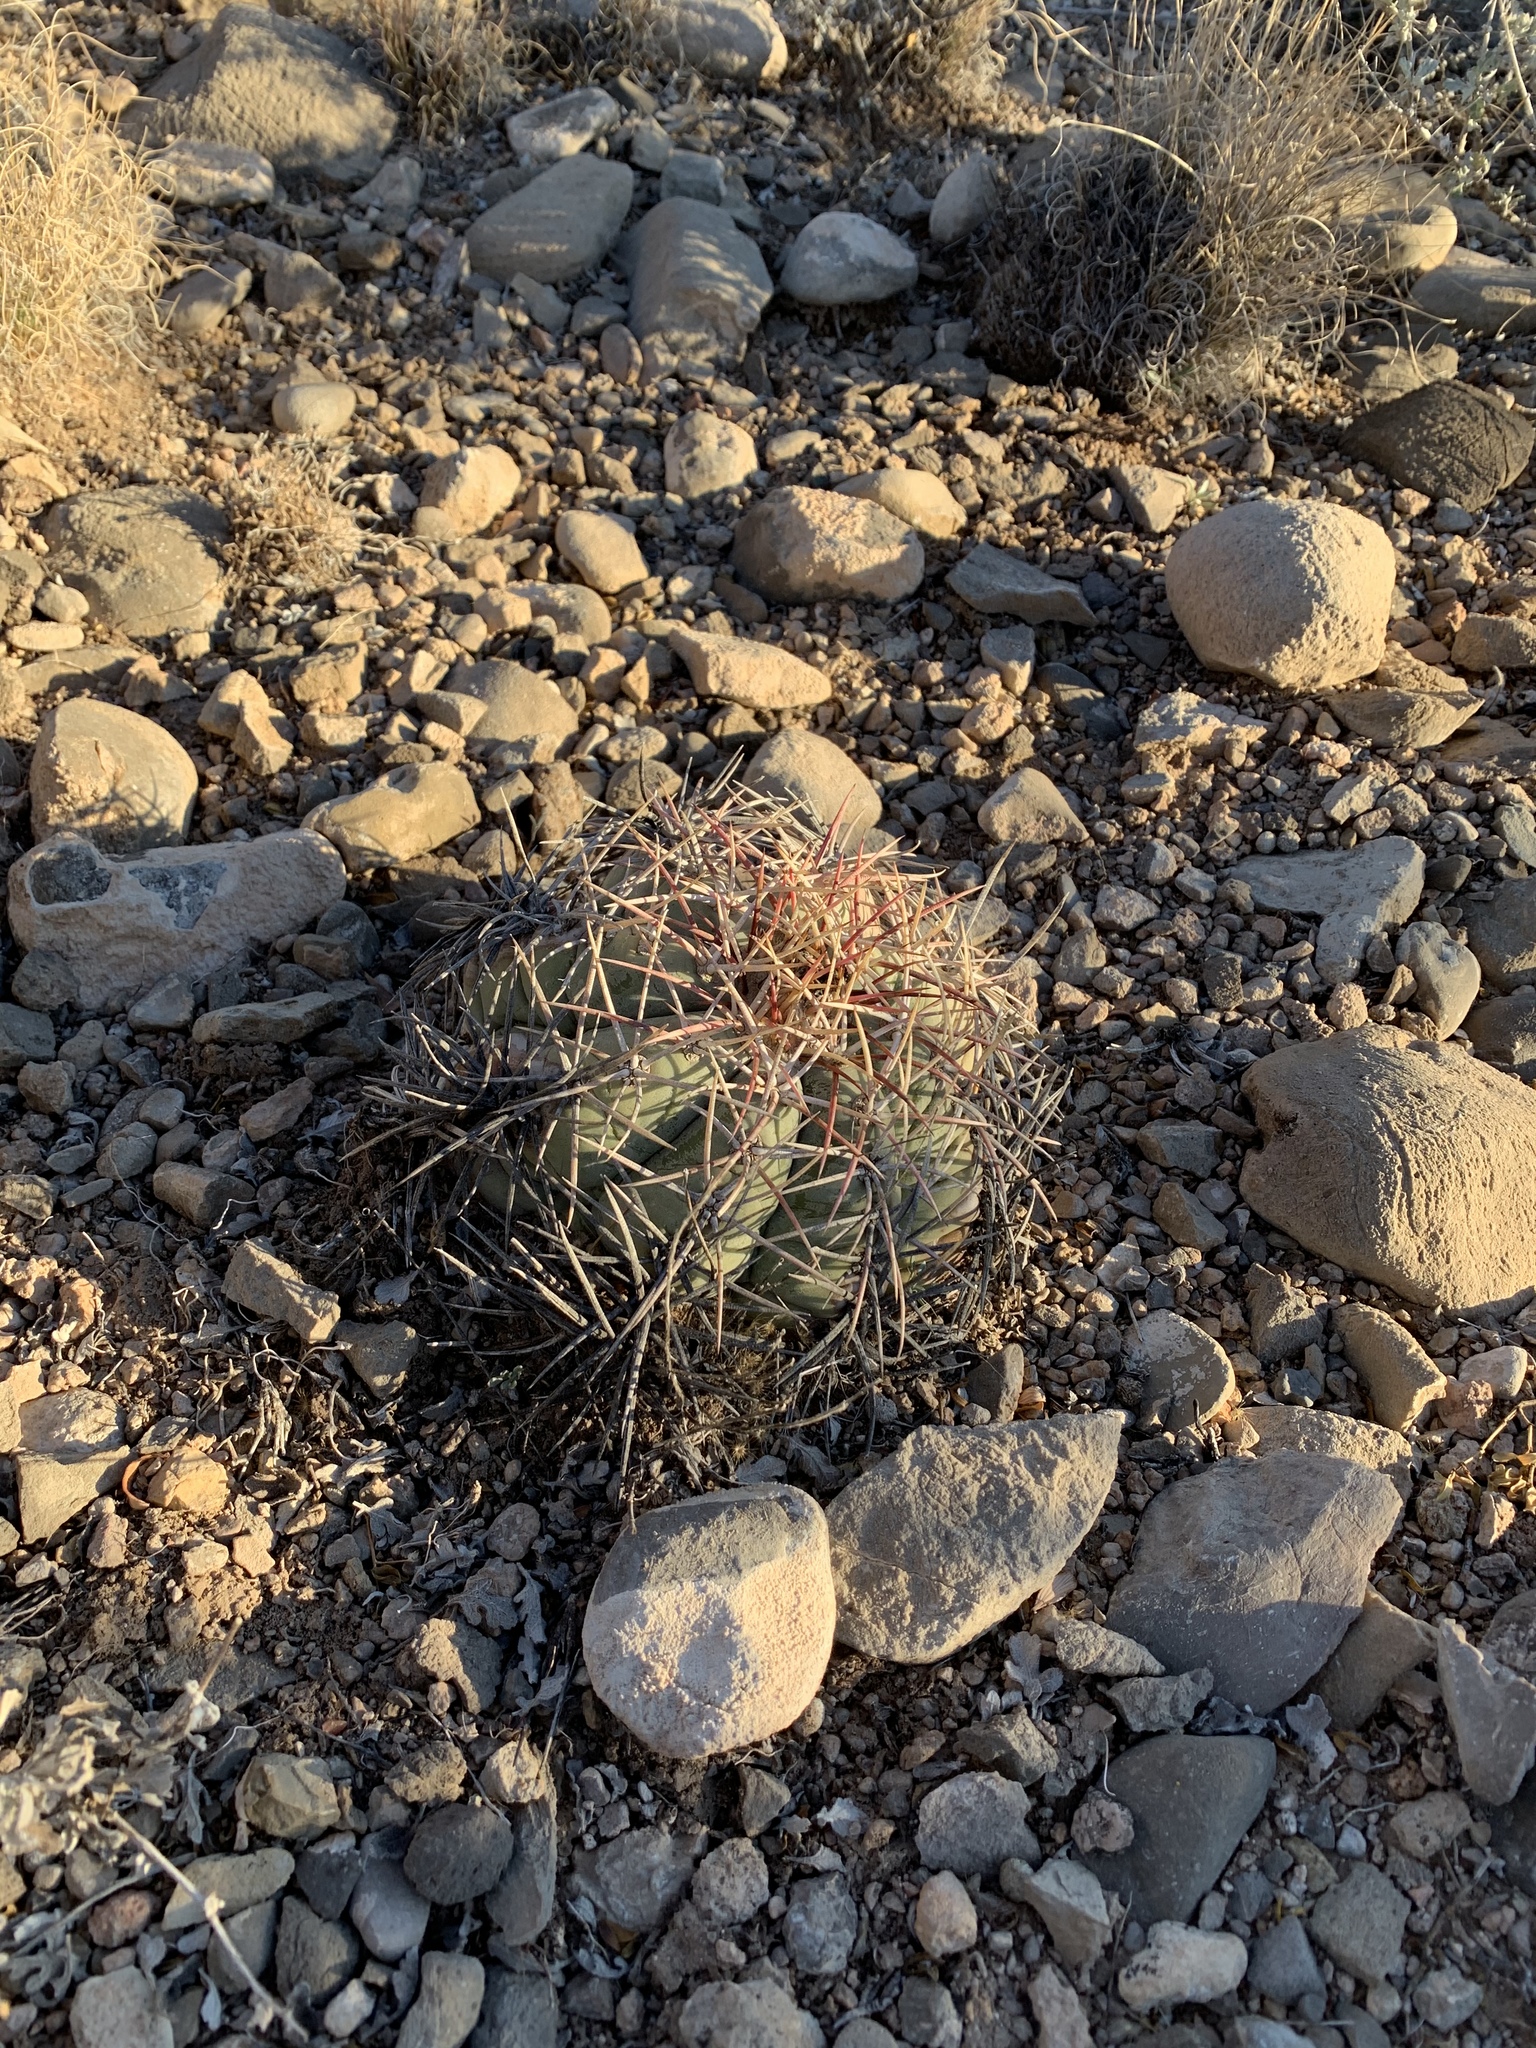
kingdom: Plantae
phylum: Tracheophyta
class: Magnoliopsida
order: Caryophyllales
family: Cactaceae
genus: Echinocactus
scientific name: Echinocactus horizonthalonius
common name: Devilshead
